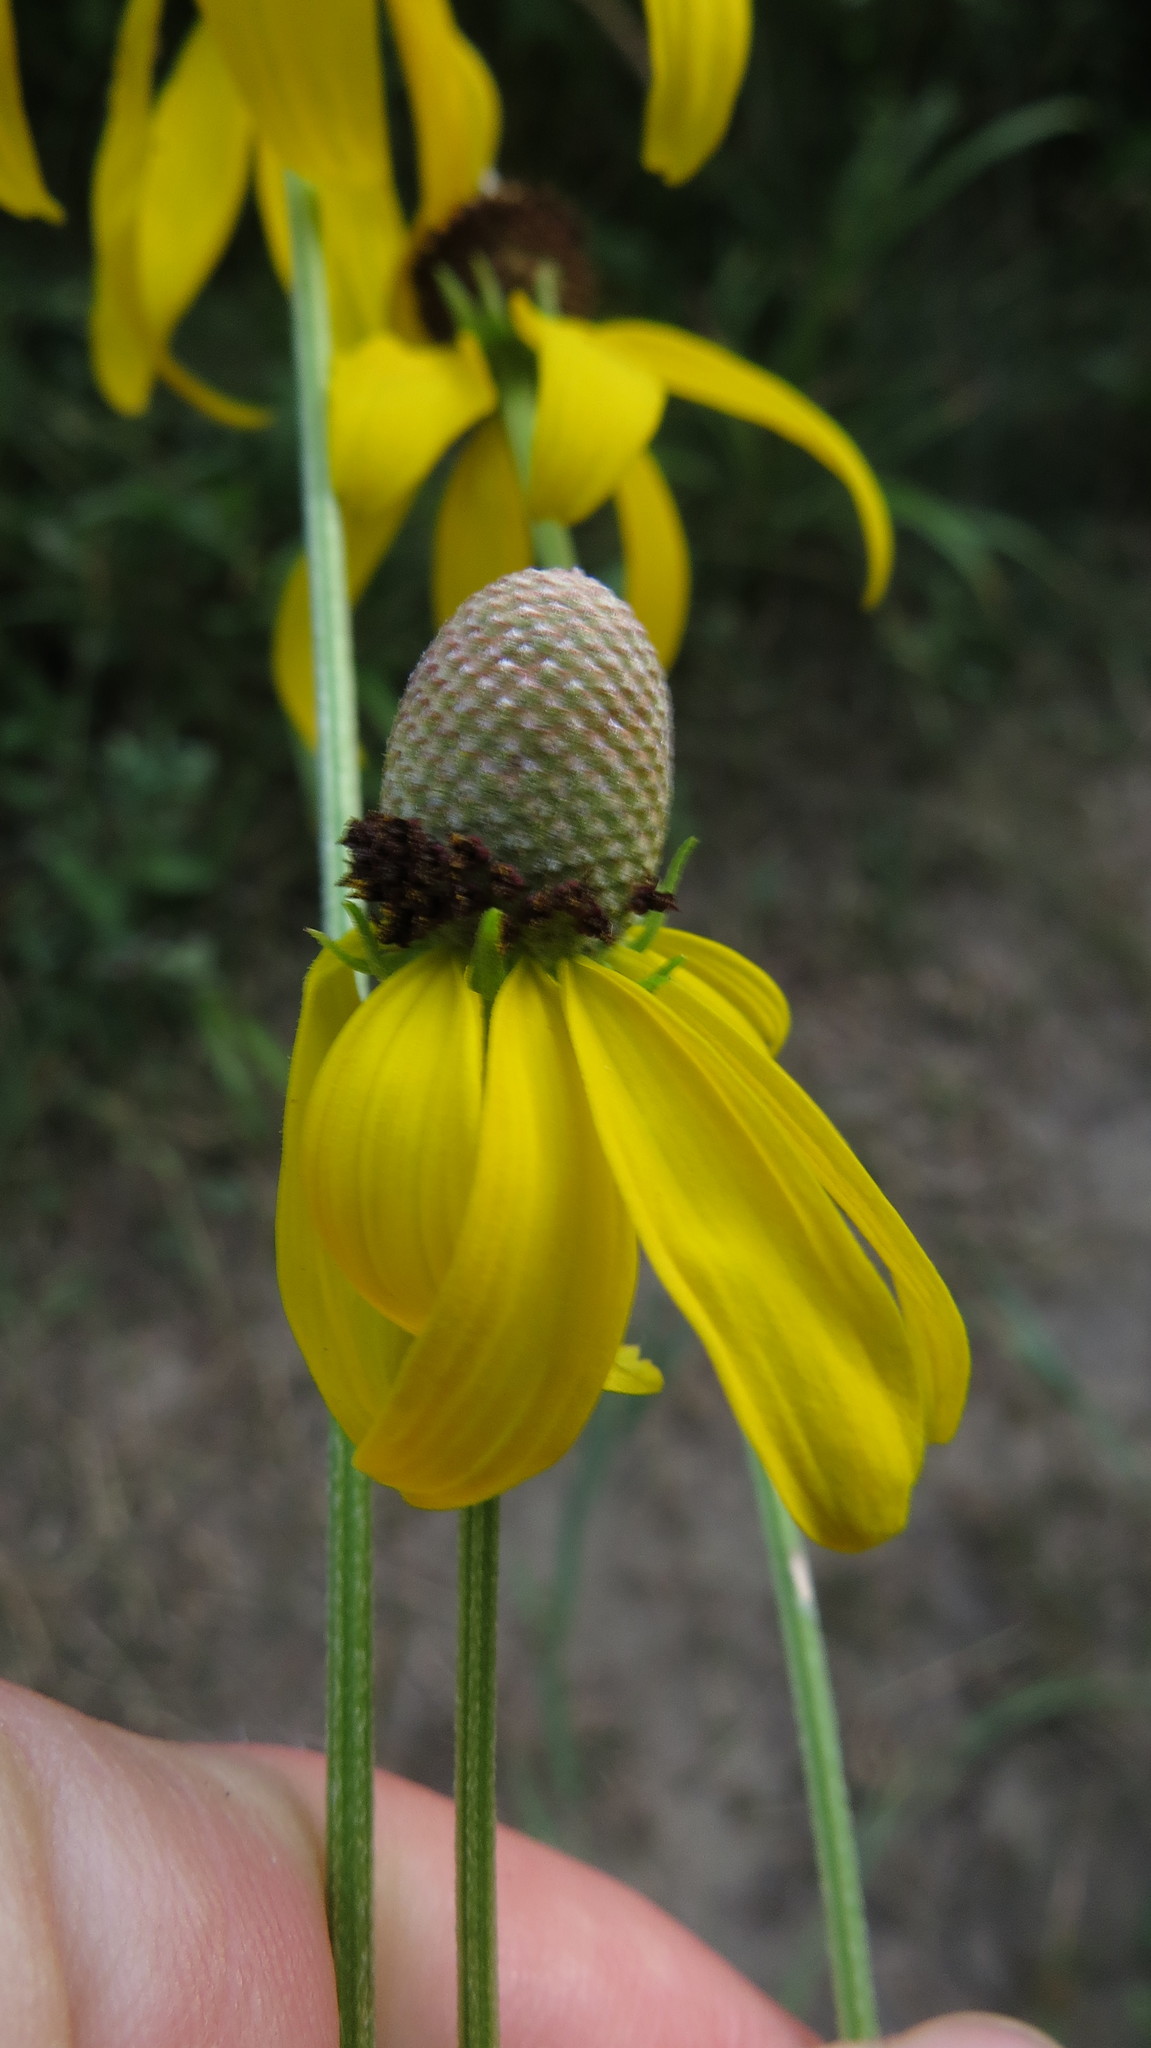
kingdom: Plantae
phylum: Tracheophyta
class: Magnoliopsida
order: Asterales
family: Asteraceae
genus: Ratibida
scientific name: Ratibida pinnata
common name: Drooping prairie-coneflower
